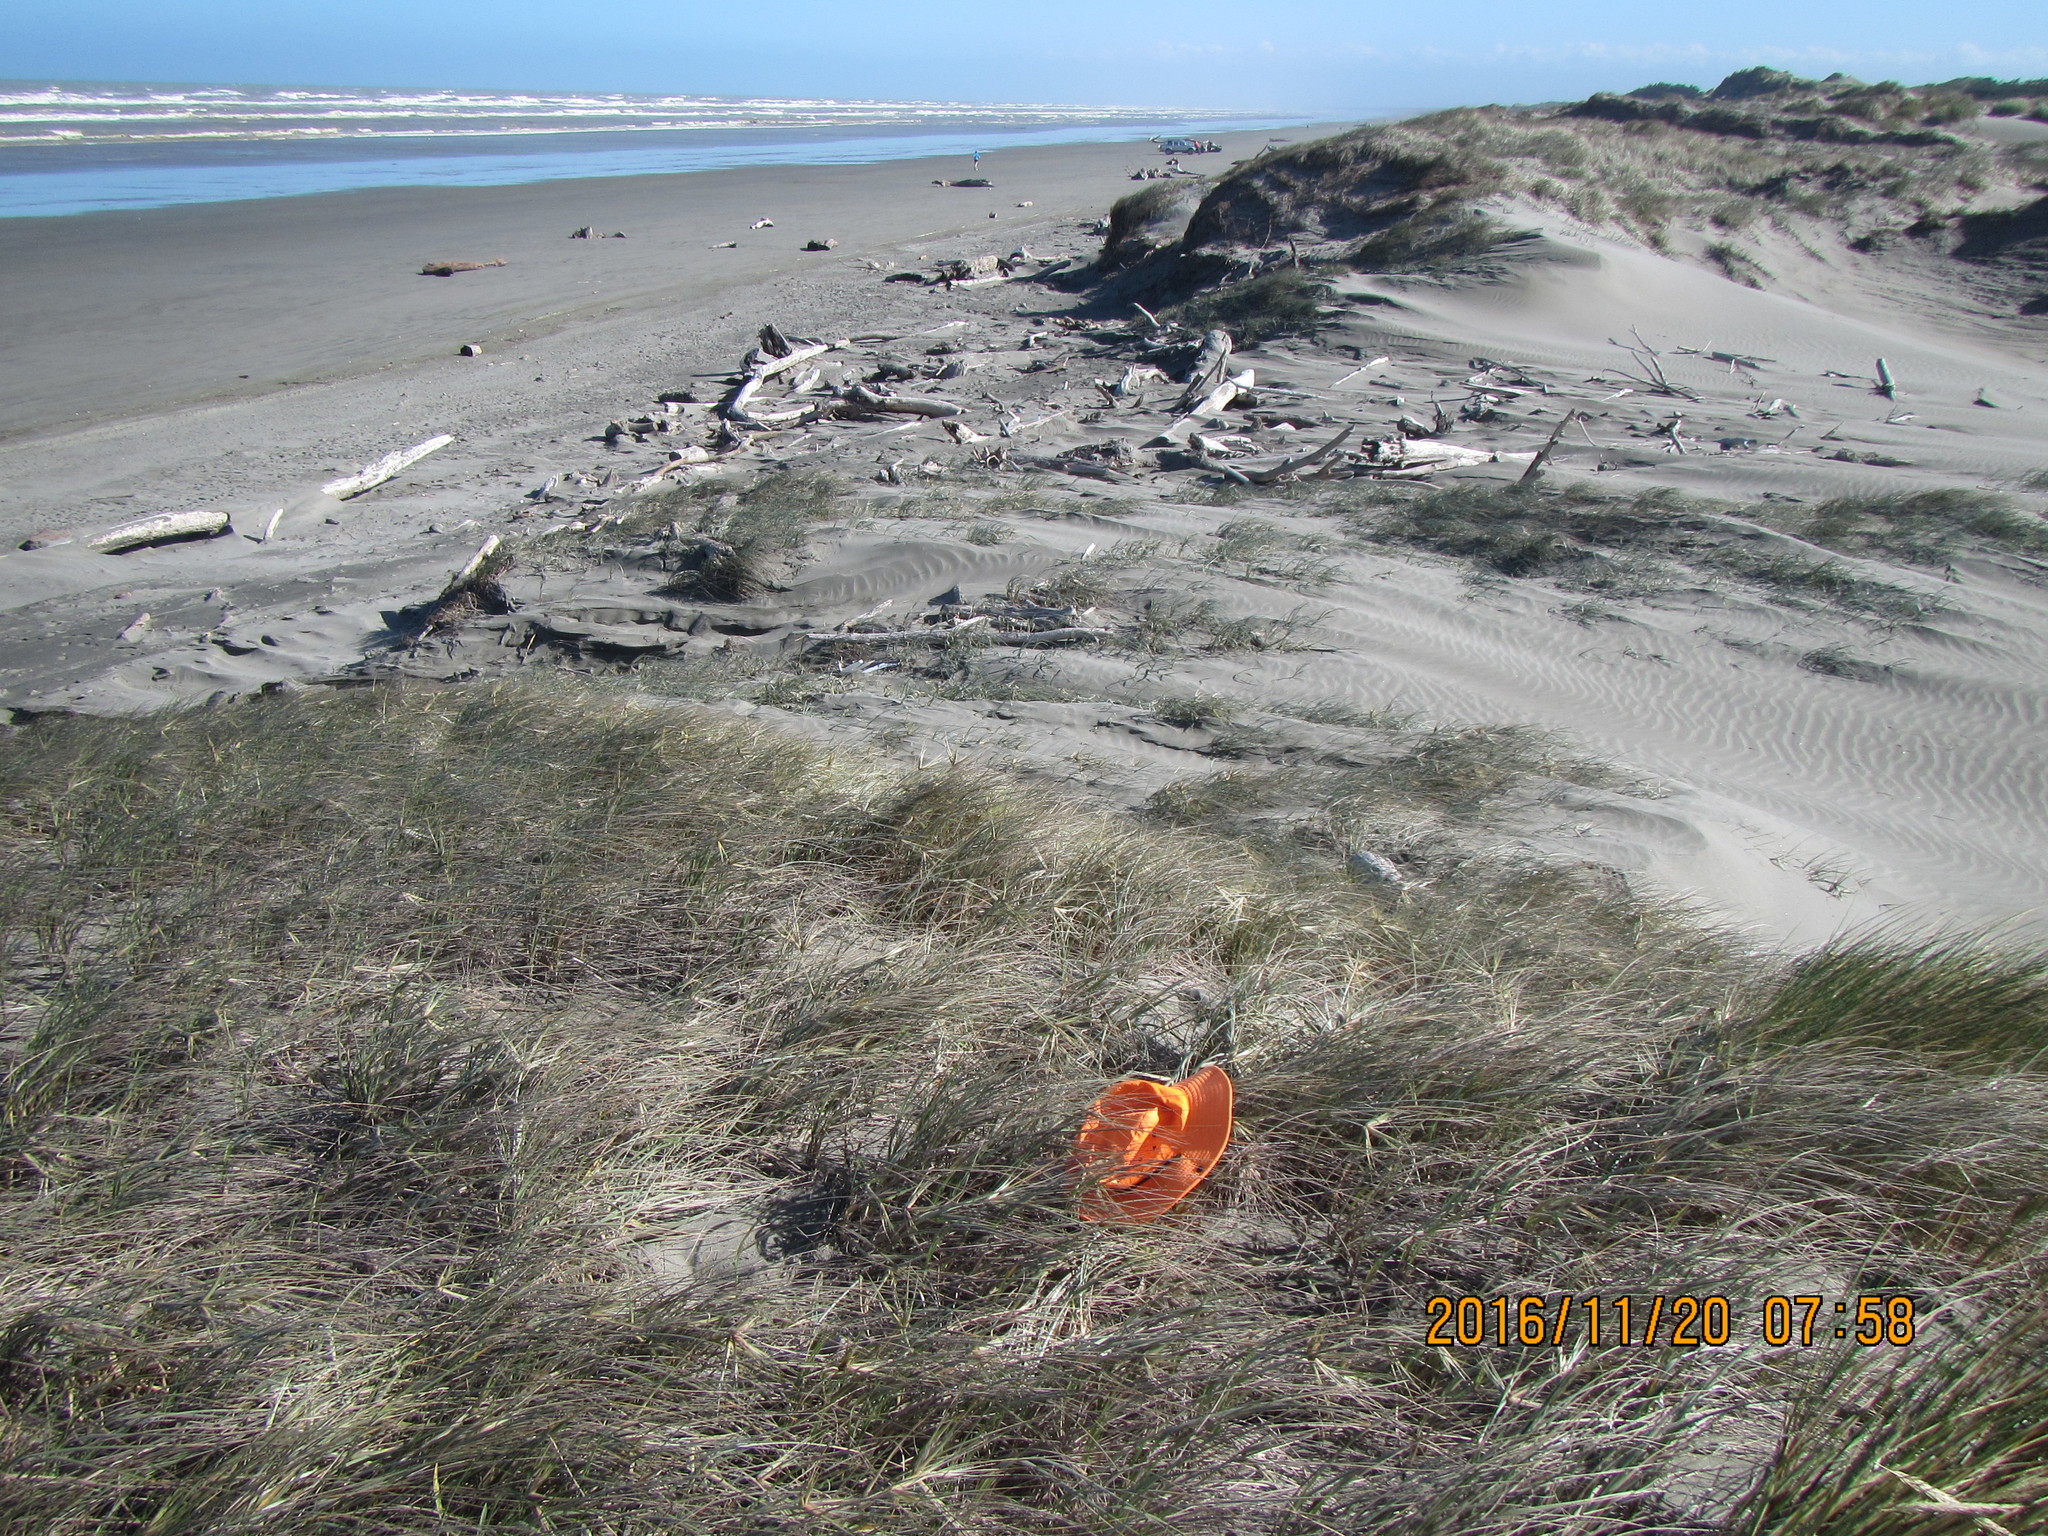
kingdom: Animalia
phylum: Arthropoda
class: Arachnida
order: Araneae
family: Theridiidae
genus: Steatoda
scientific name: Steatoda capensis
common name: Cobweb weaver
